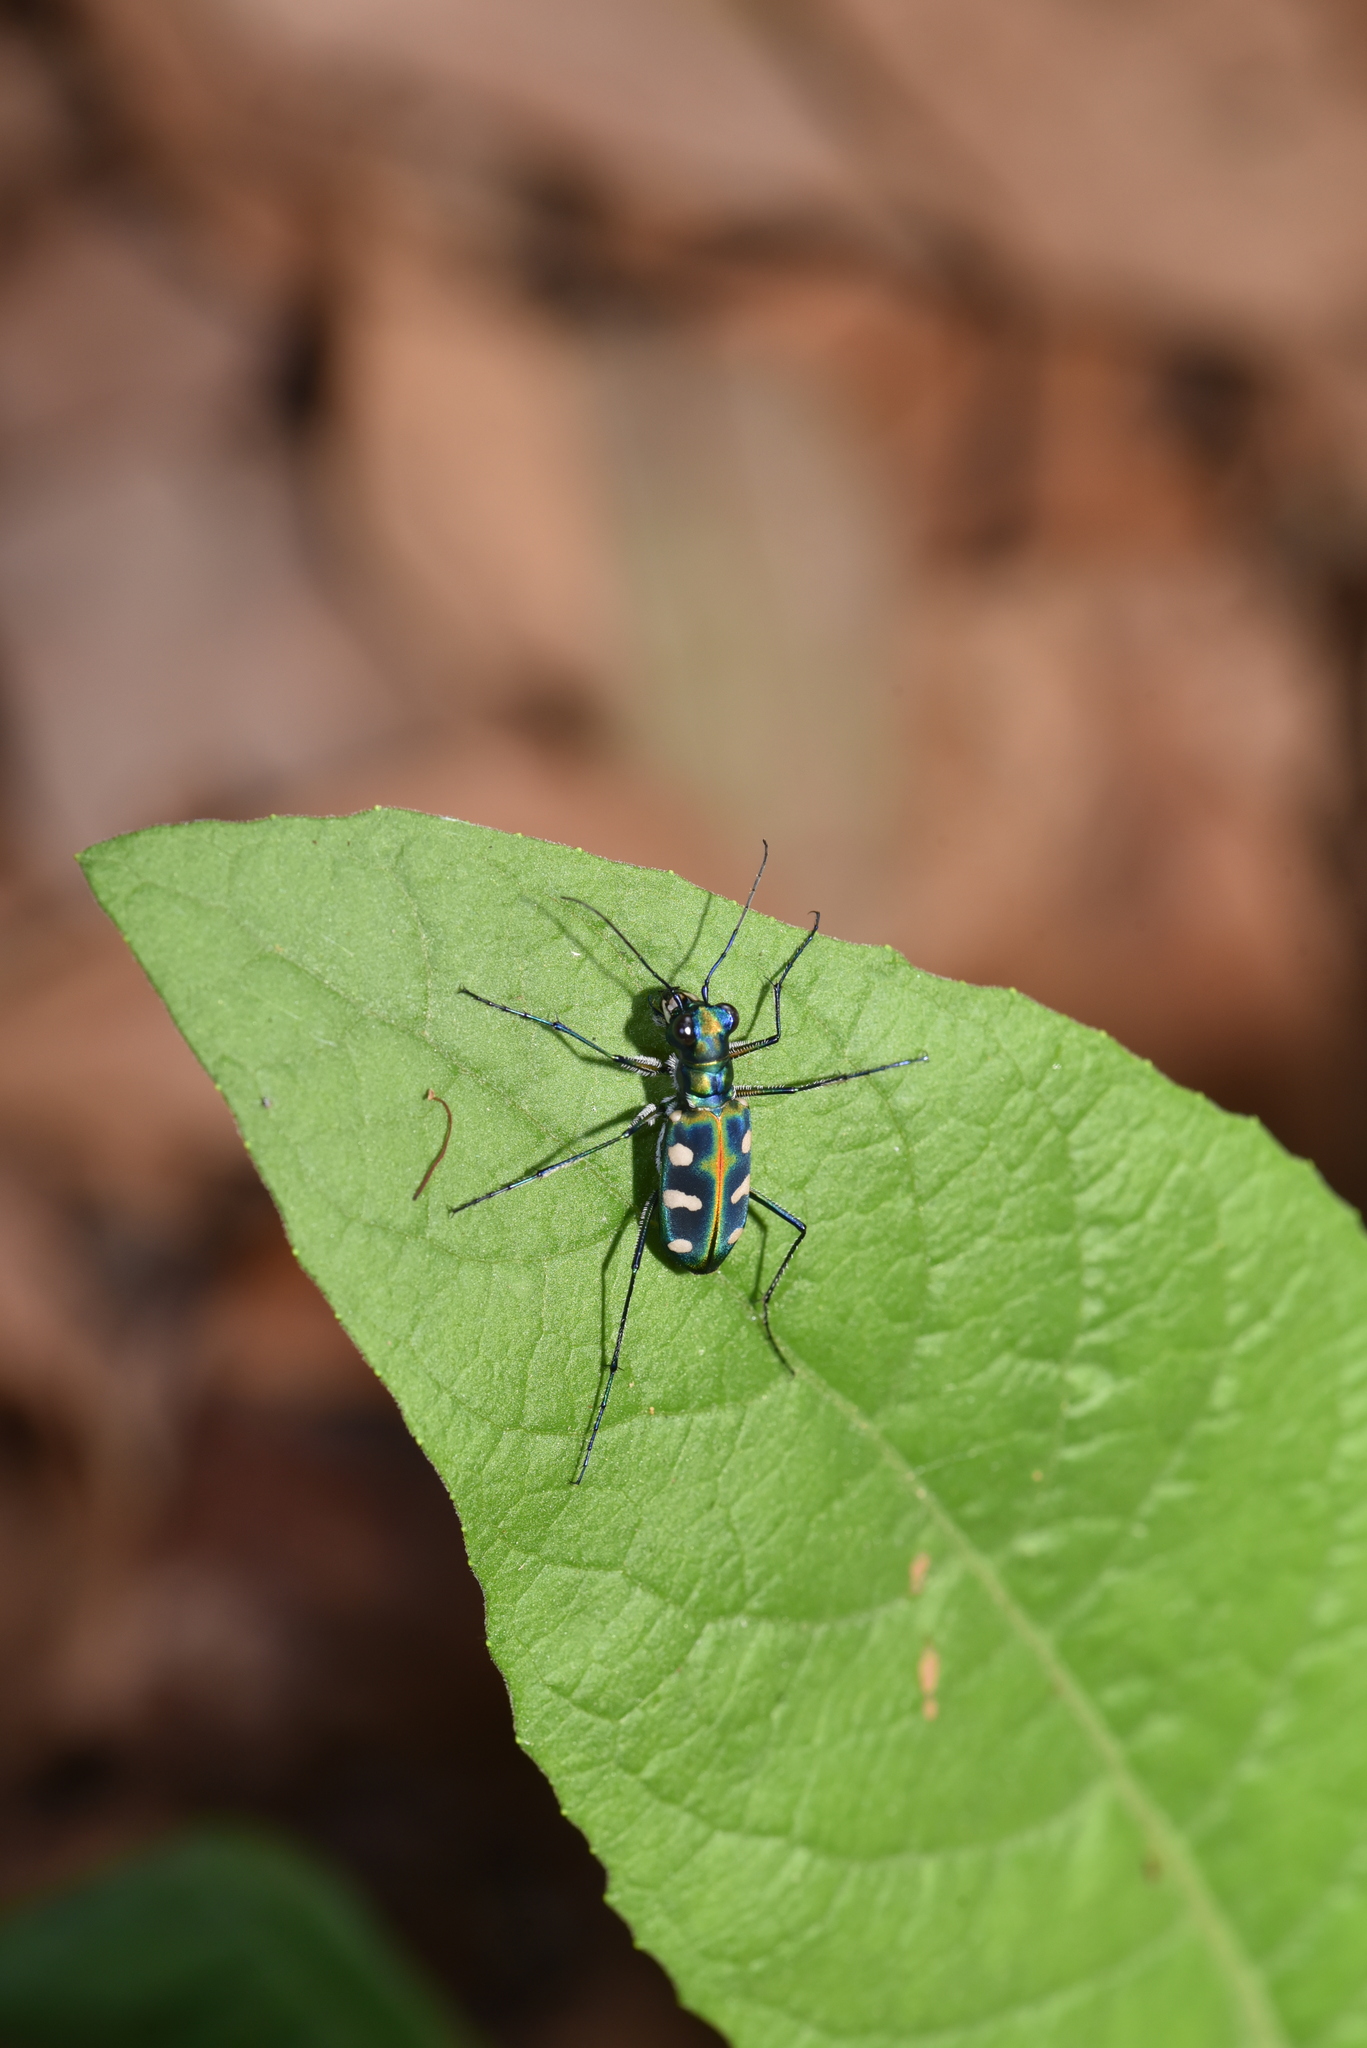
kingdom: Animalia
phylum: Arthropoda
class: Insecta
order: Coleoptera
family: Carabidae
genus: Cicindela
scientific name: Cicindela batesi
